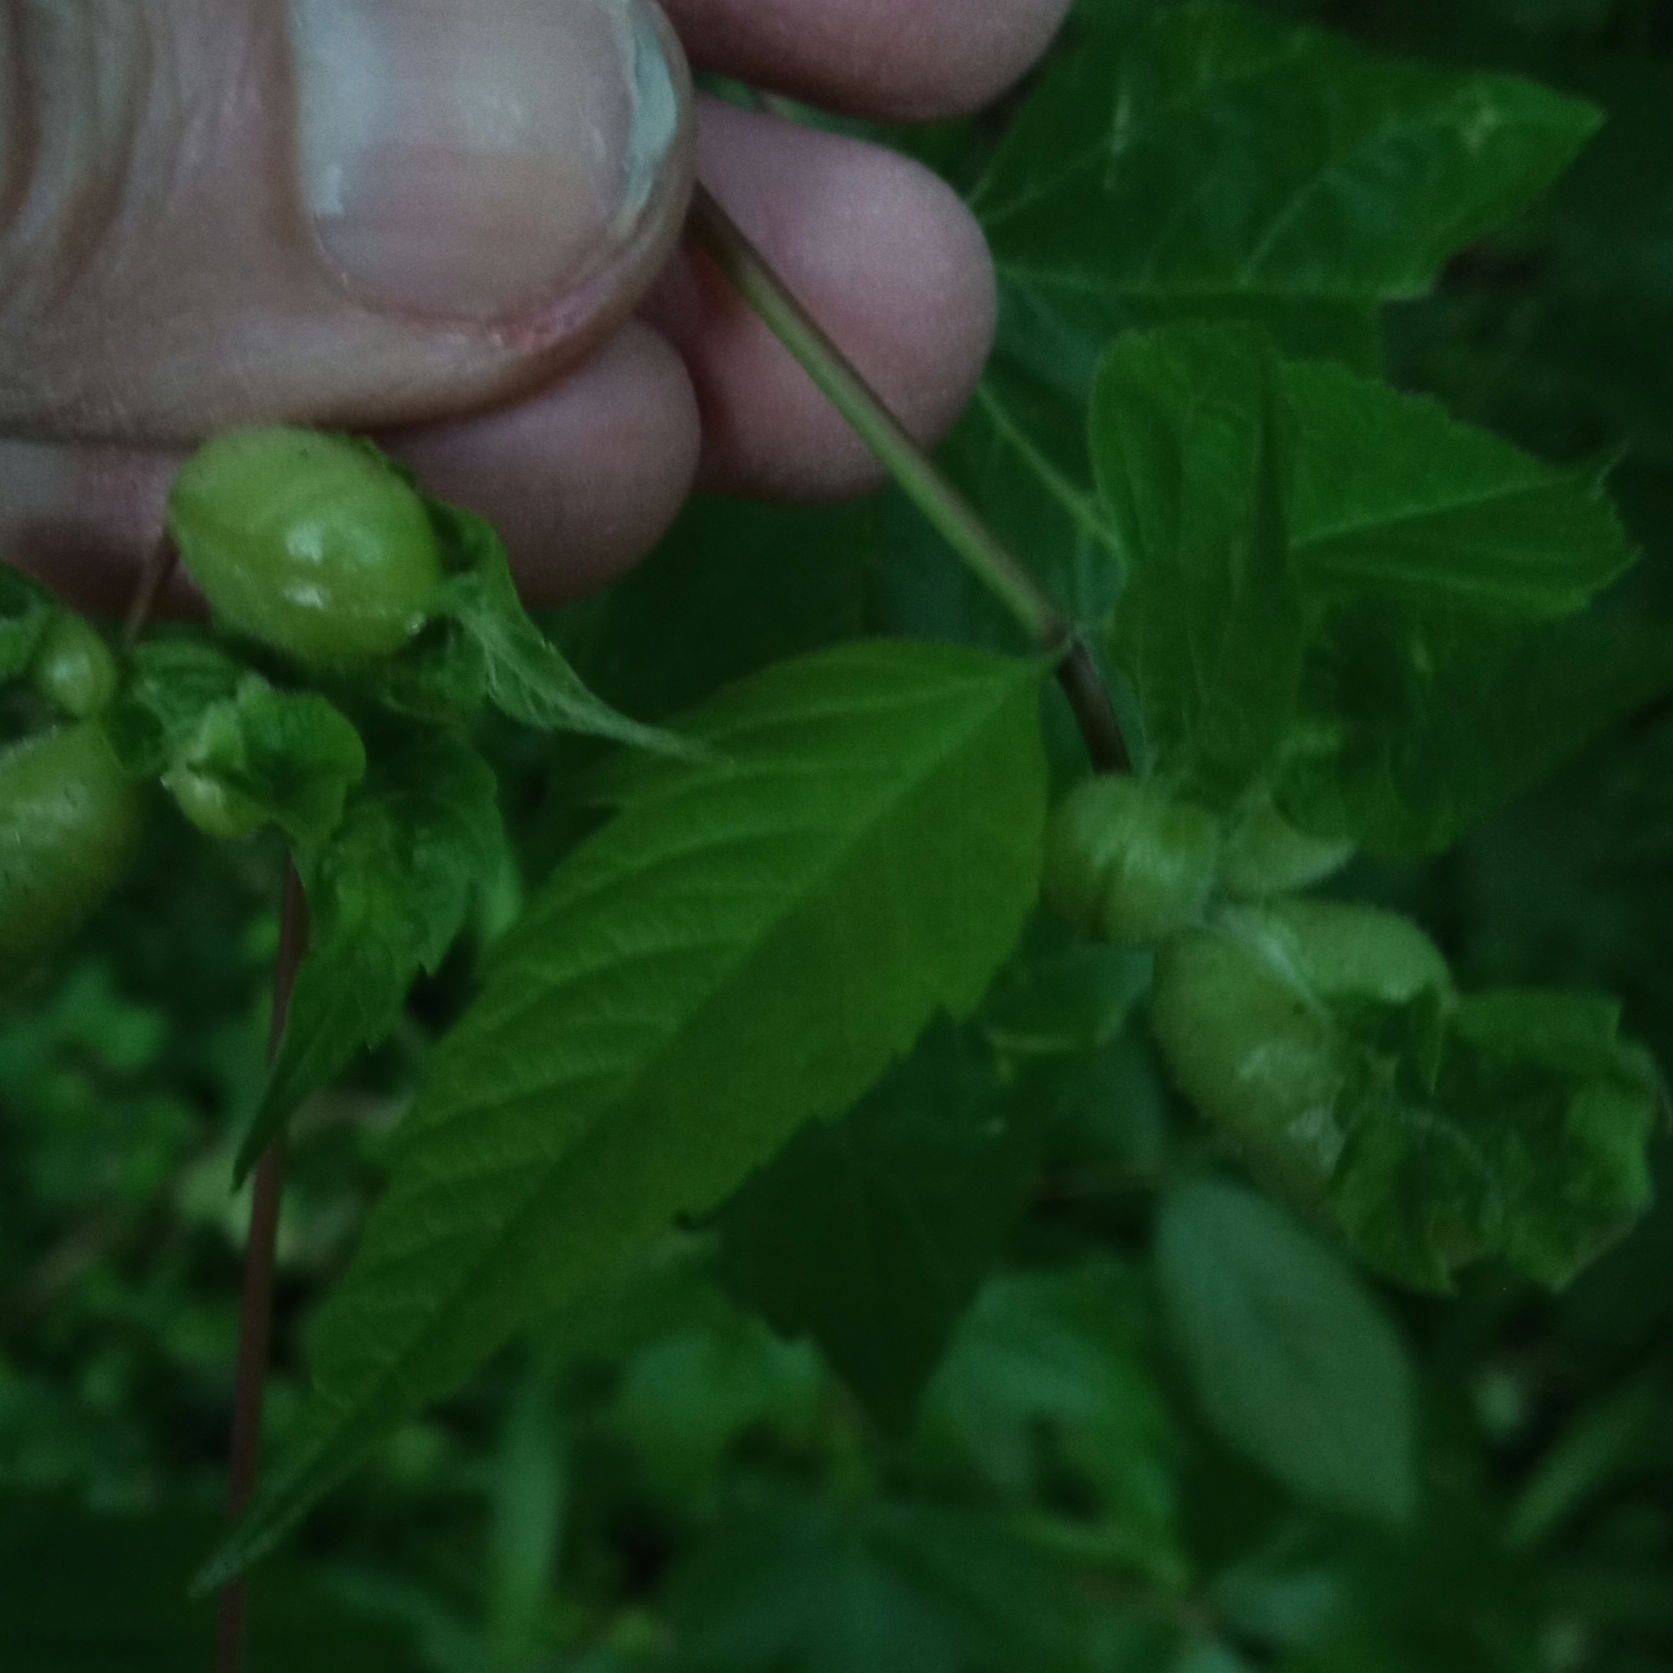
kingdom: Animalia
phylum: Arthropoda
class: Insecta
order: Diptera
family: Cecidomyiidae
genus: Contarinia
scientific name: Contarinia negundinis
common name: Boxelder budgall midge
